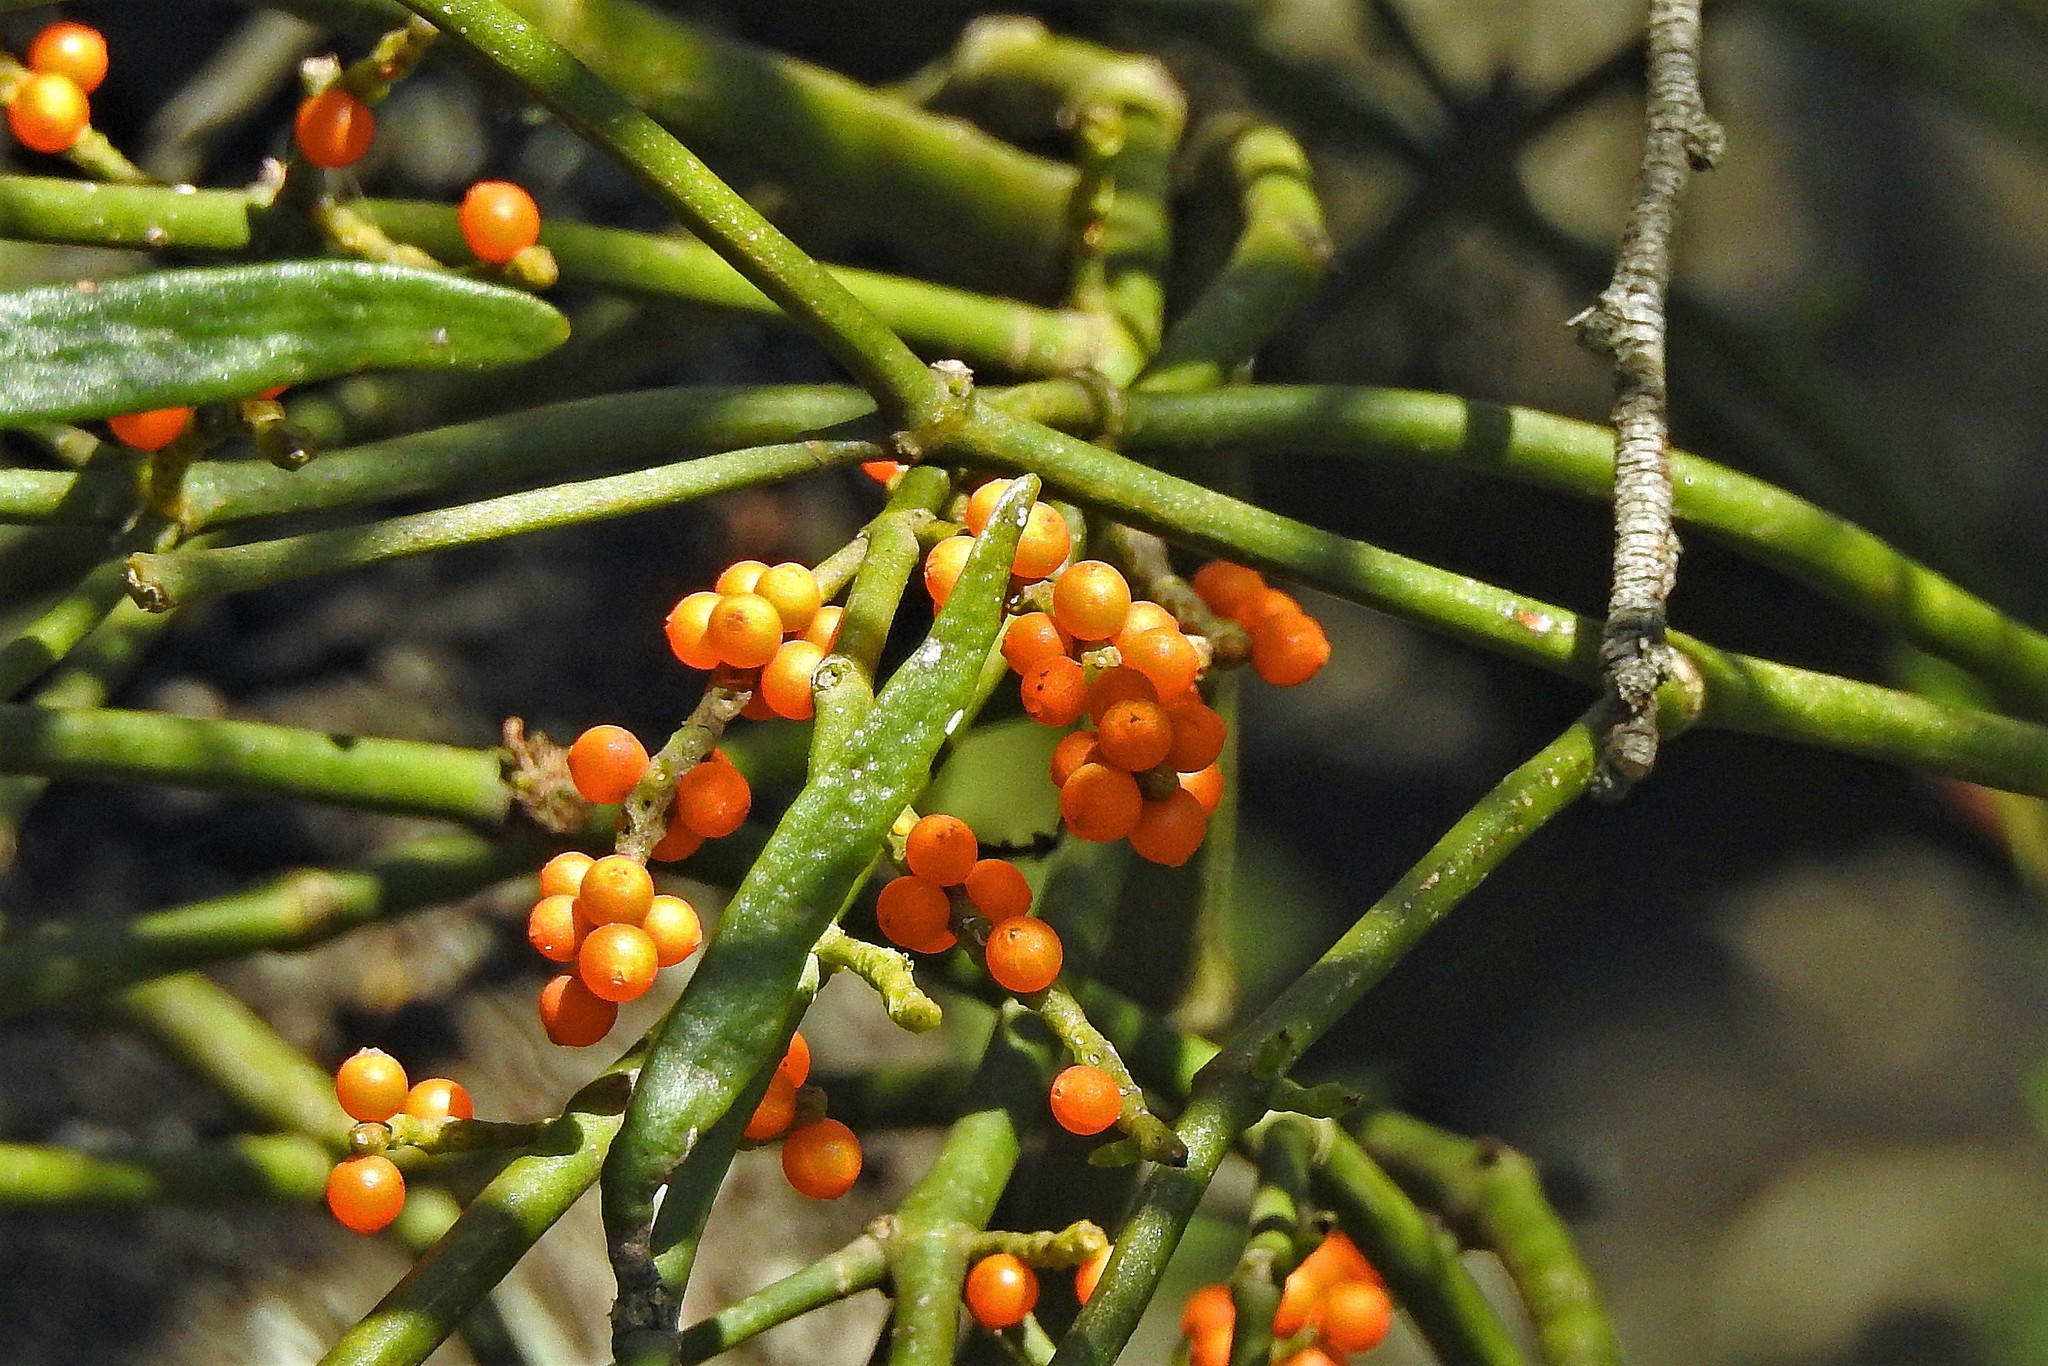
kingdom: Plantae
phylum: Tracheophyta
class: Magnoliopsida
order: Santalales
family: Viscaceae
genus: Phoradendron
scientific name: Phoradendron quadrangulare
